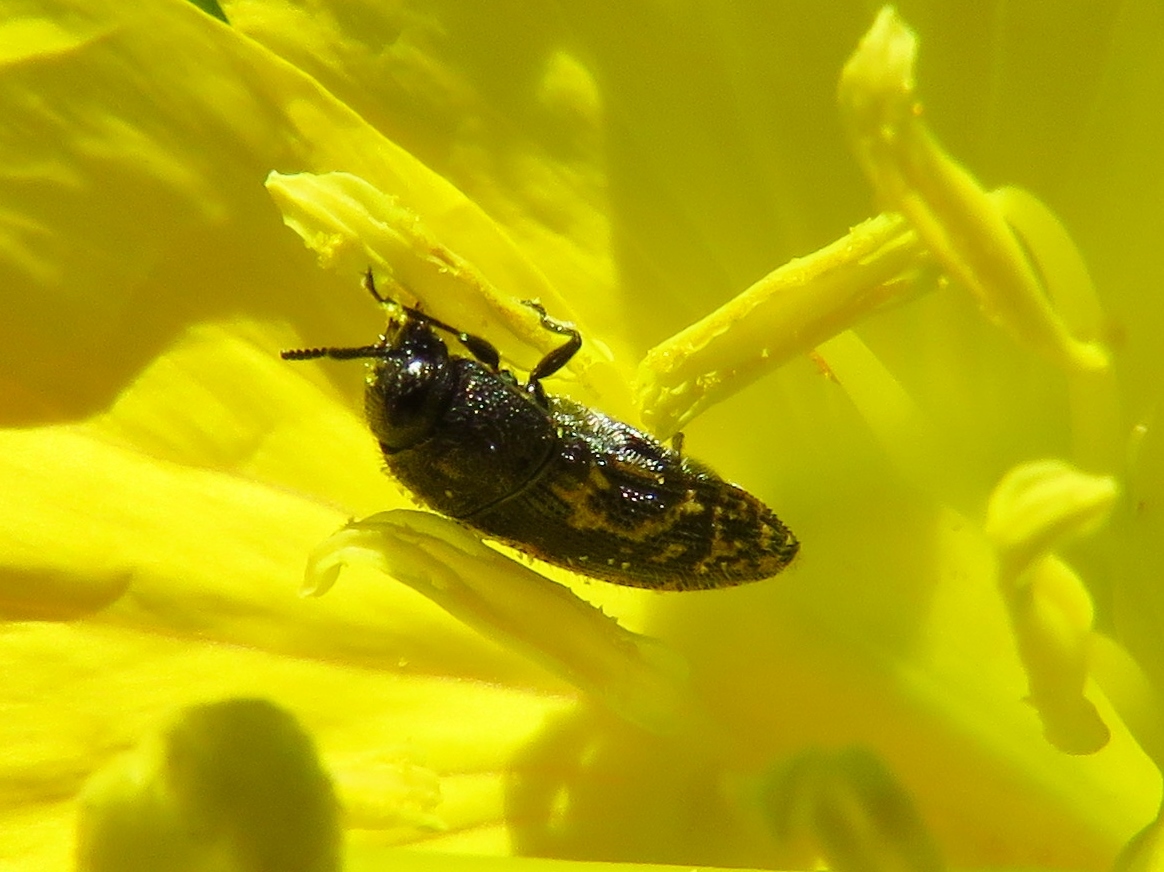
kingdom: Animalia
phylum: Arthropoda
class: Insecta
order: Coleoptera
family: Buprestidae
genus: Acmaeodera
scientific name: Acmaeodera neglecta
